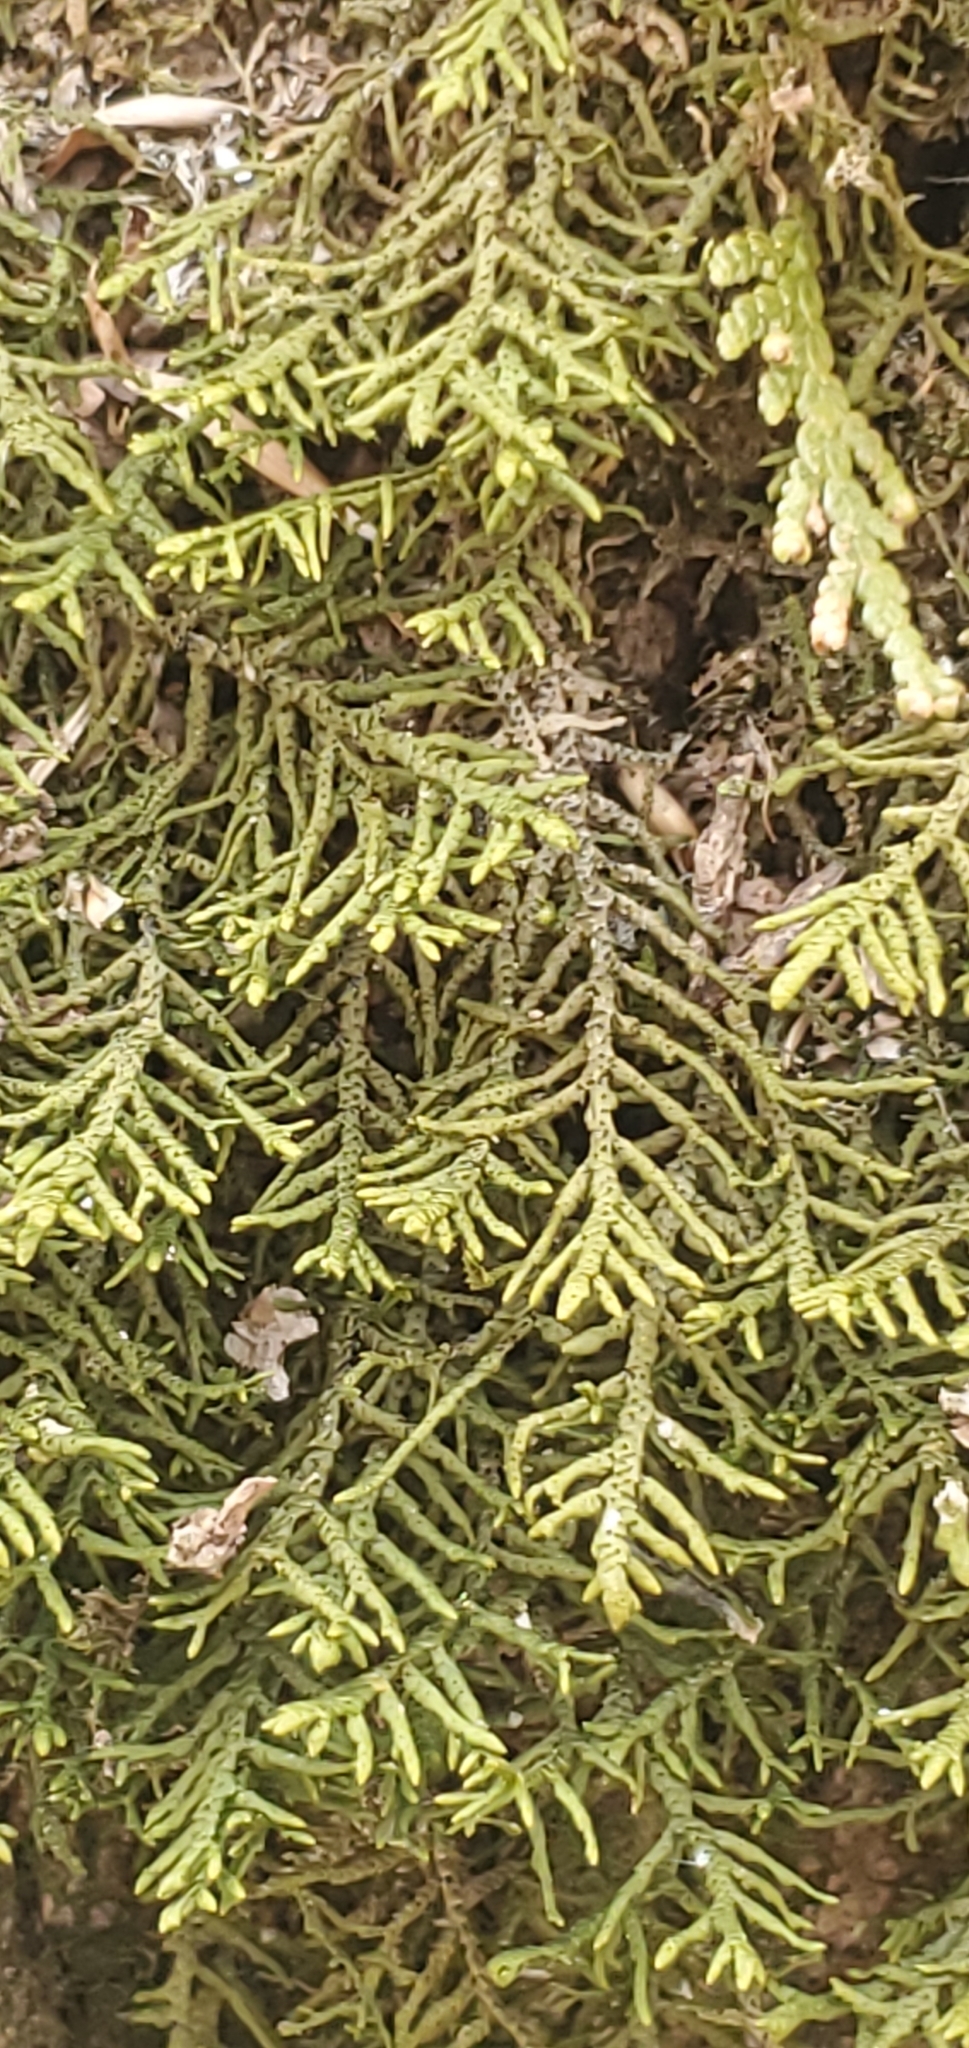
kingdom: Plantae
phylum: Marchantiophyta
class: Jungermanniopsida
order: Porellales
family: Porellaceae
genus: Porella
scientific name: Porella platyphylla
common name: Wall scalewort
